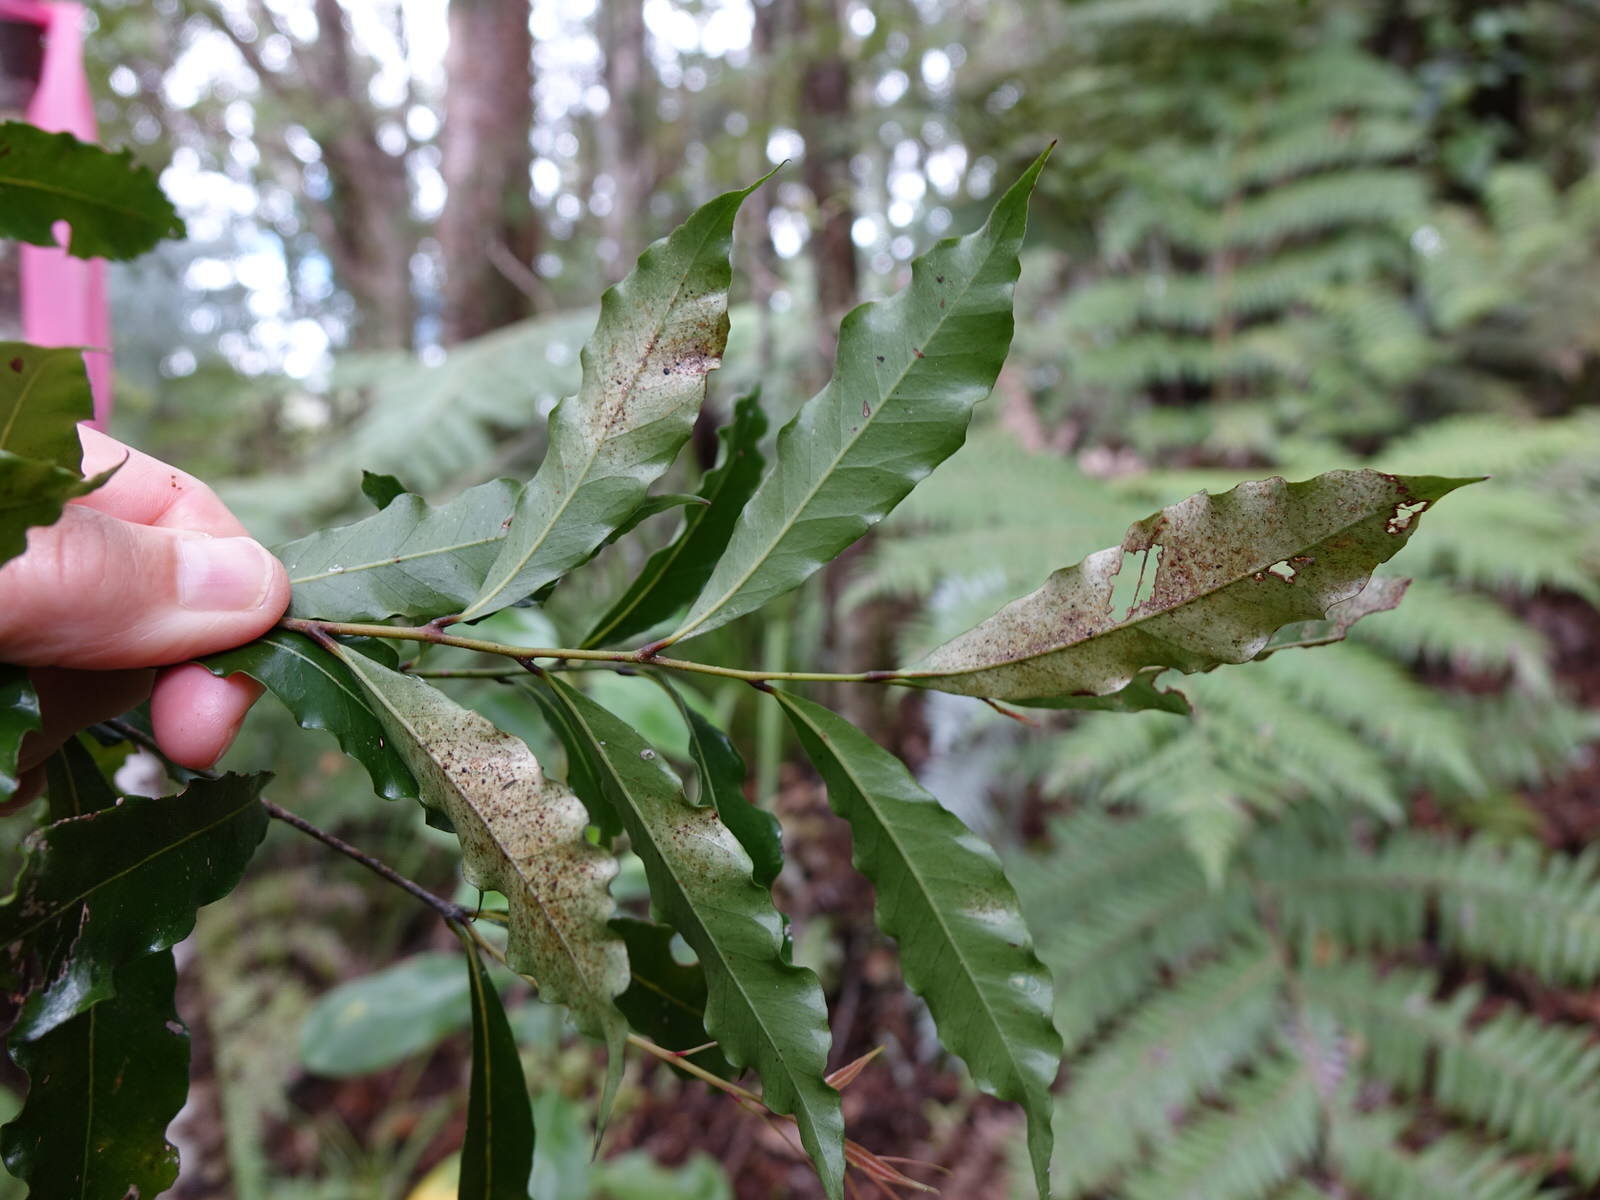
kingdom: Plantae
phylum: Tracheophyta
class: Magnoliopsida
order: Santalales
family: Nanodeaceae
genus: Mida
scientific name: Mida salicifolia
